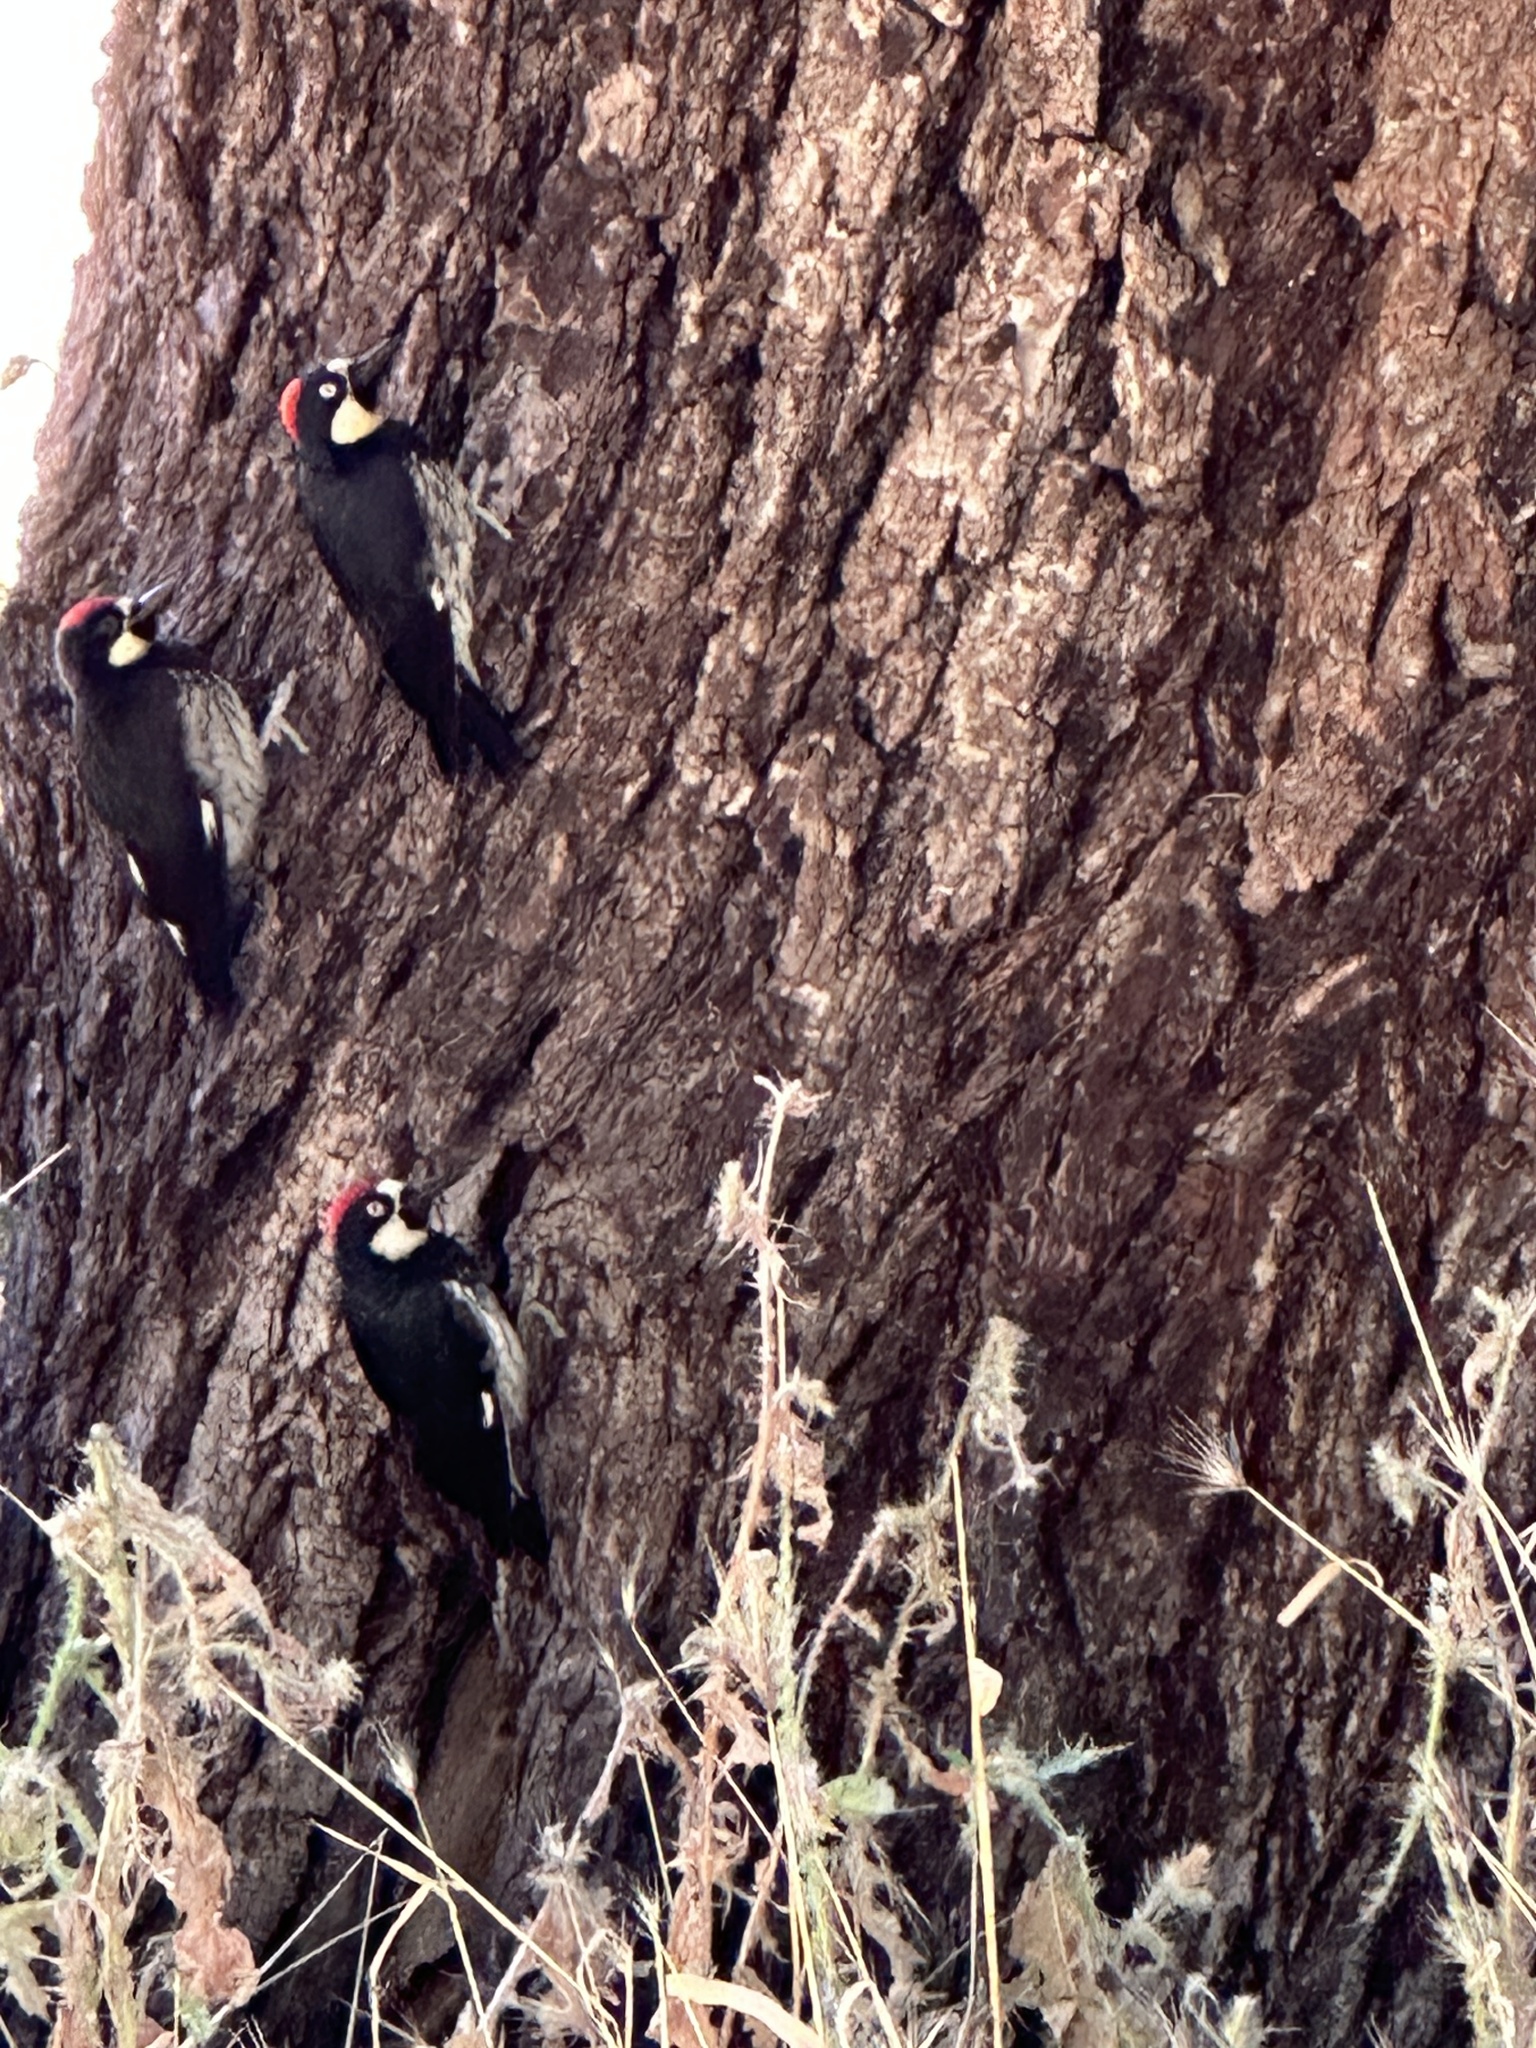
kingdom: Animalia
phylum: Chordata
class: Aves
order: Piciformes
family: Picidae
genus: Melanerpes
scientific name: Melanerpes formicivorus
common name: Acorn woodpecker
